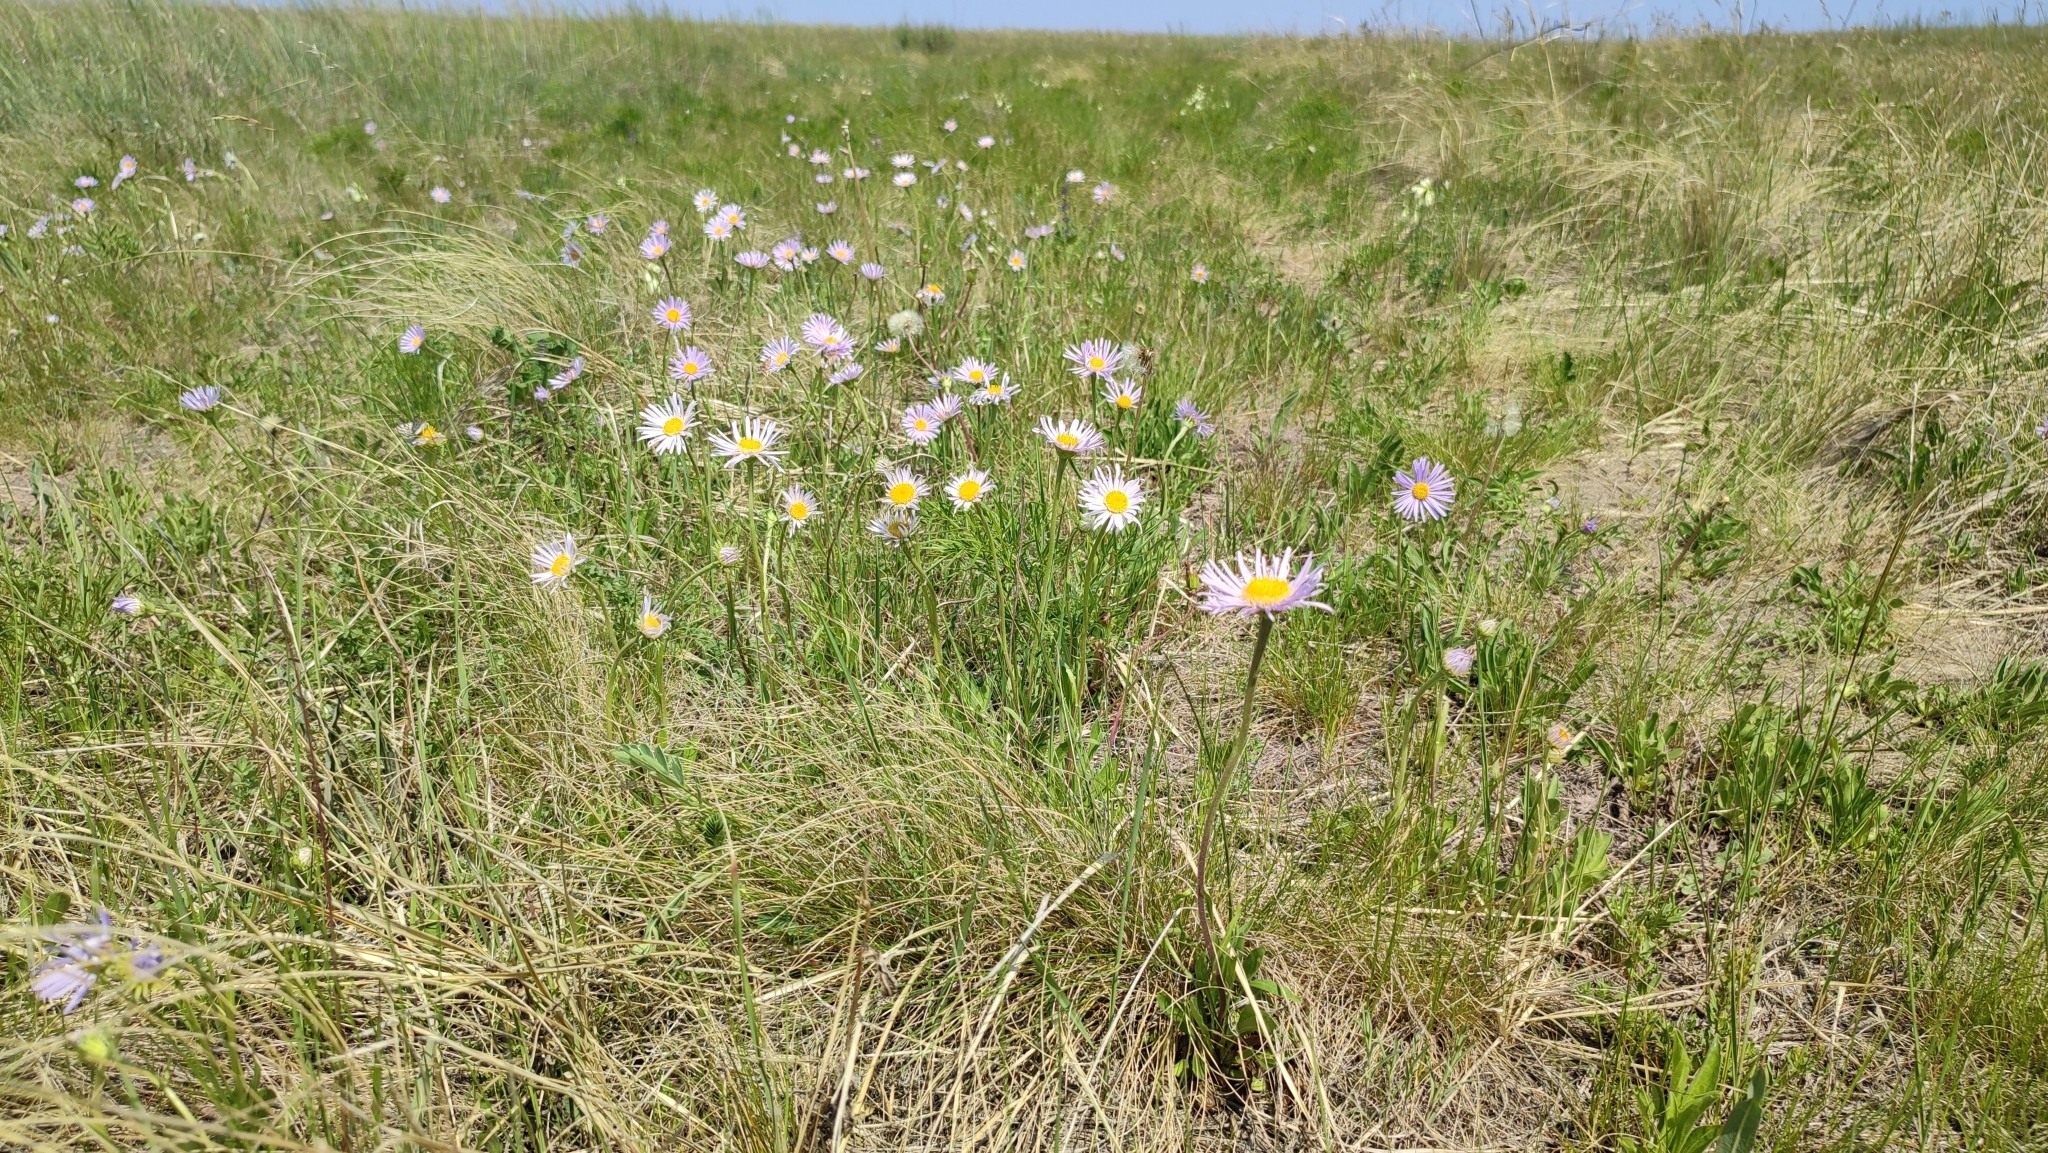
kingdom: Plantae
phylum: Tracheophyta
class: Magnoliopsida
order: Asterales
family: Asteraceae
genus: Aster
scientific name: Aster alpinus
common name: Alpine aster
